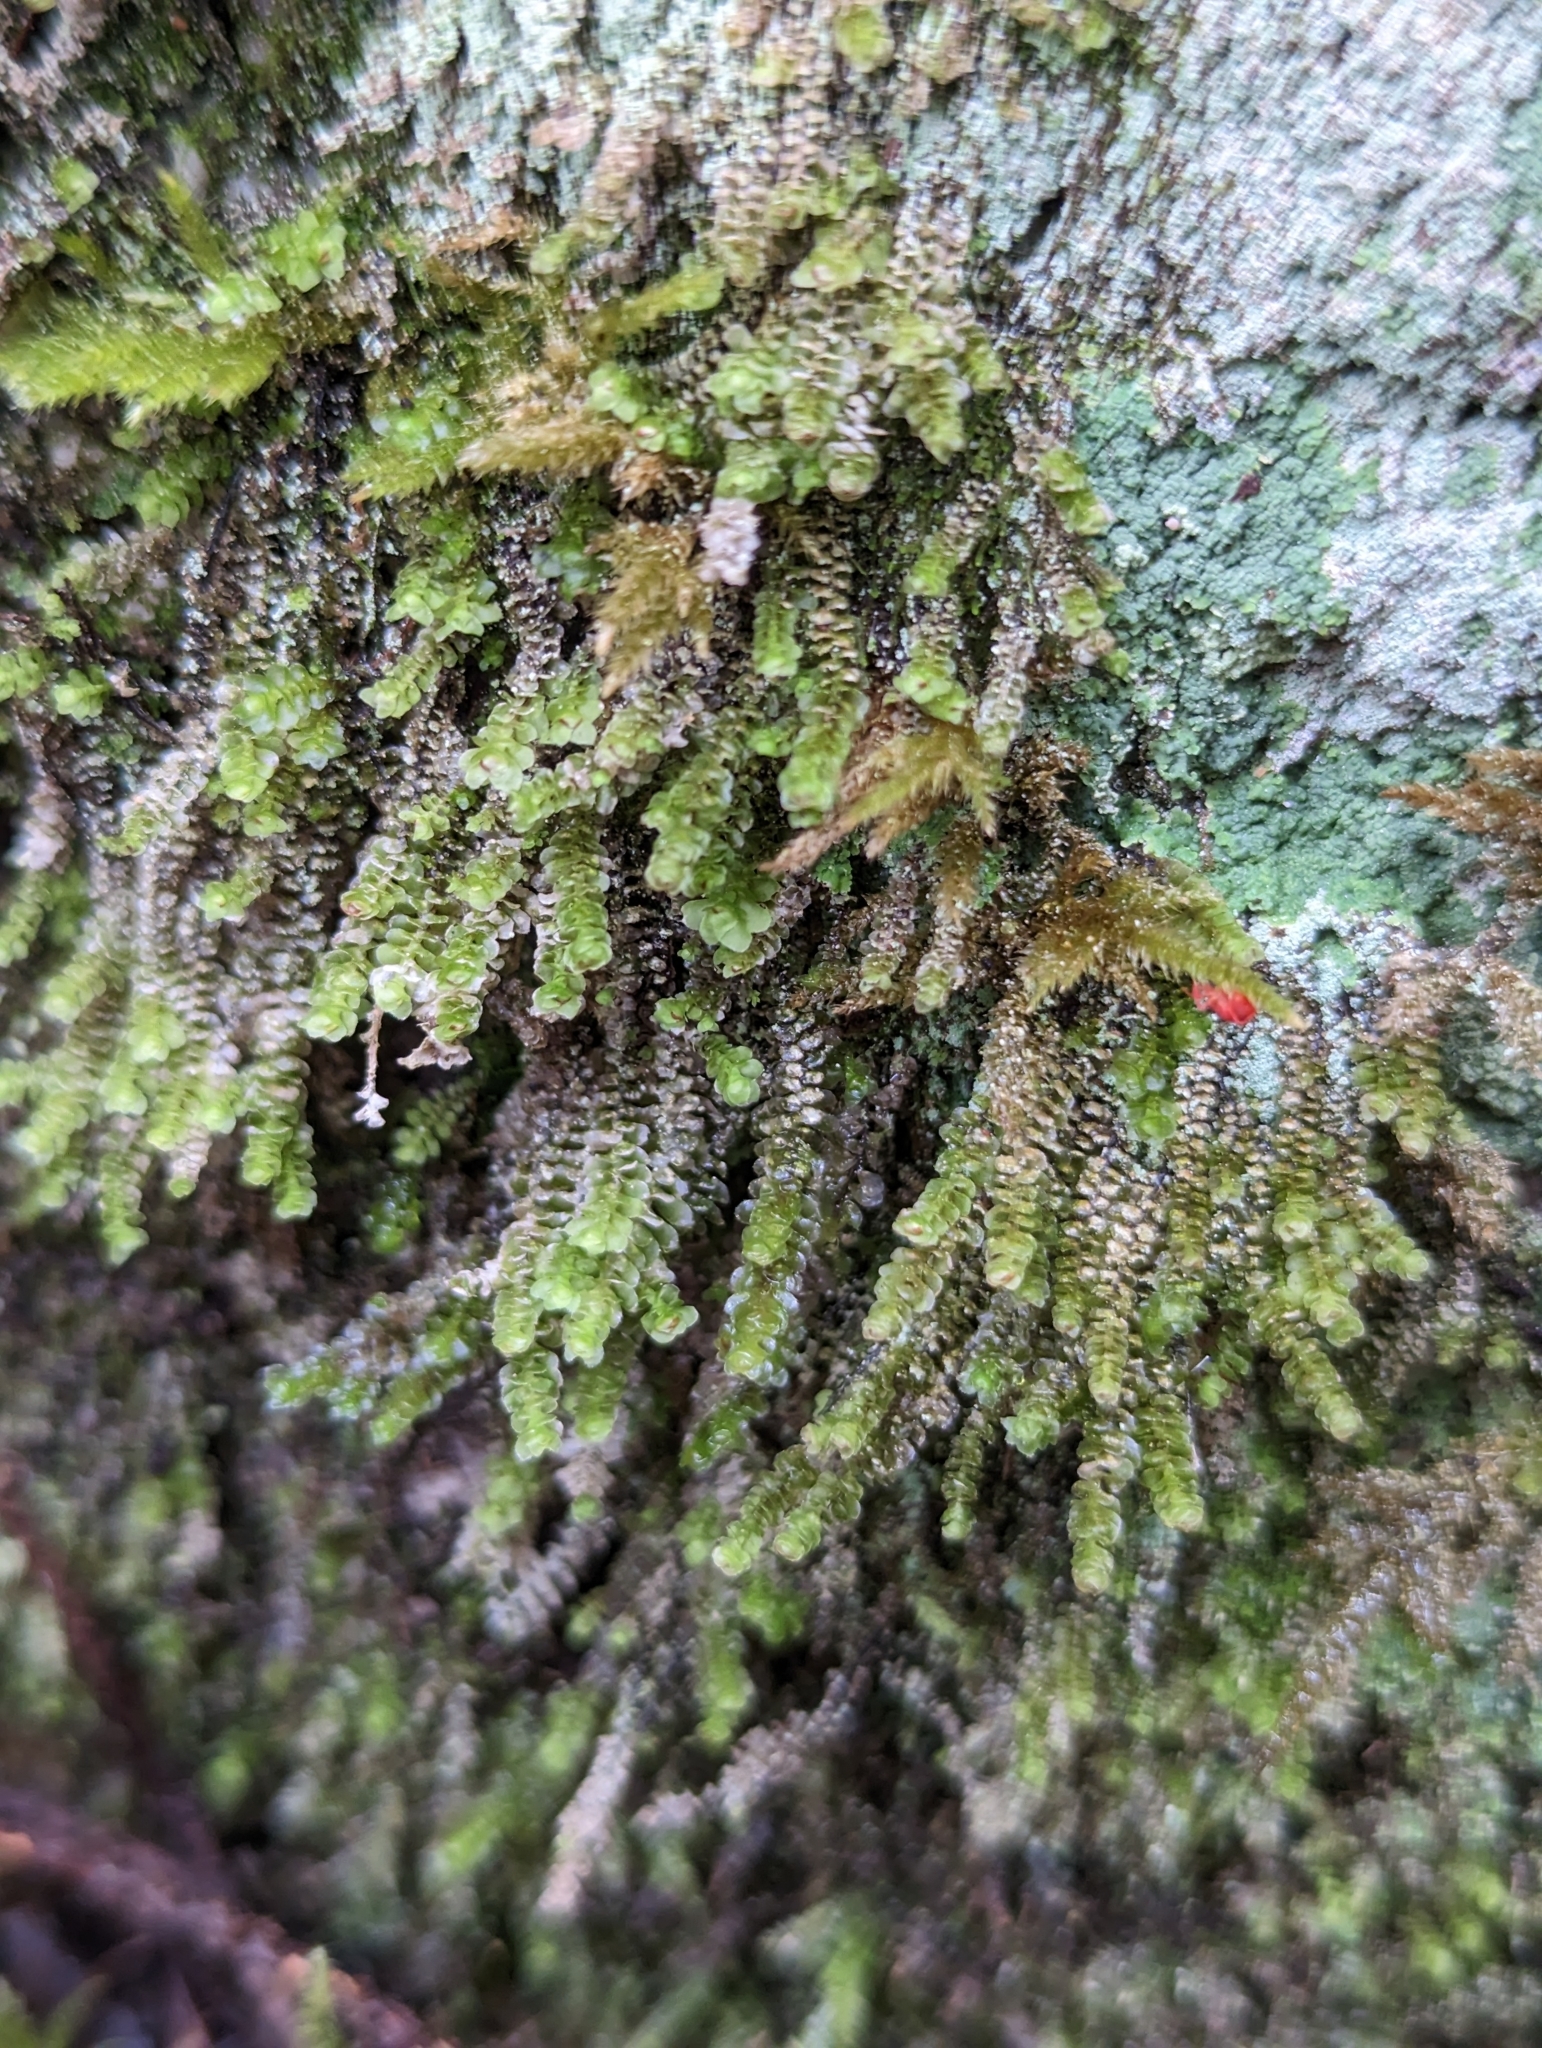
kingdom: Plantae
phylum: Marchantiophyta
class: Jungermanniopsida
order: Jungermanniales
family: Scapaniaceae
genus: Scapania
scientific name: Scapania bolanderi
